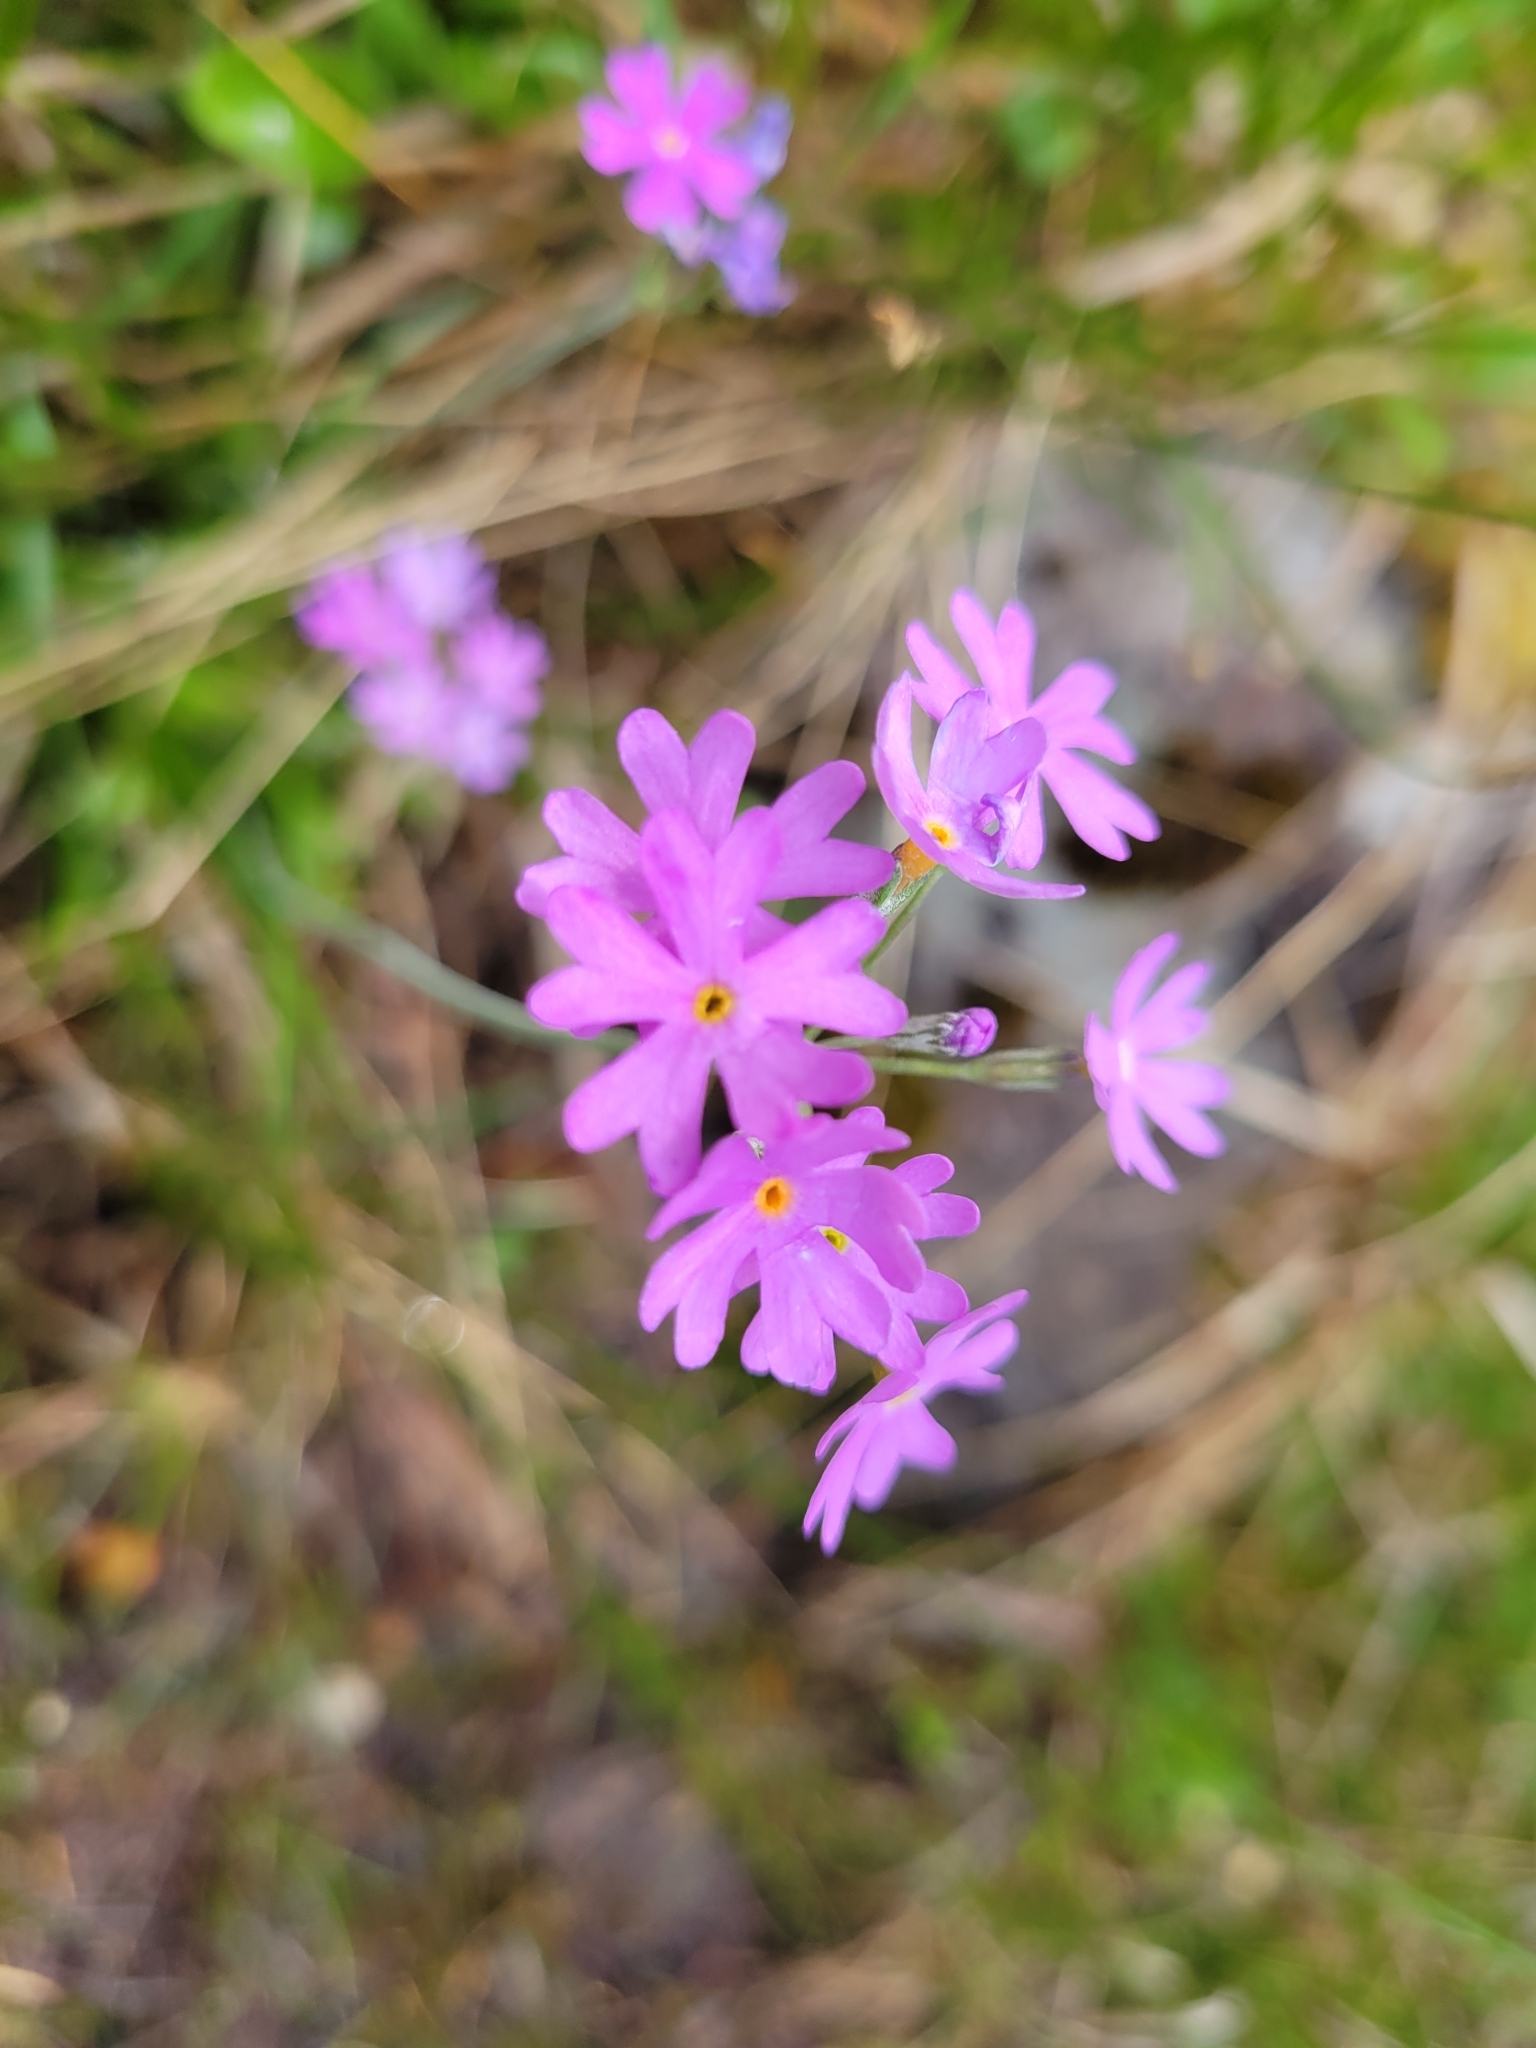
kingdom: Plantae
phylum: Tracheophyta
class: Magnoliopsida
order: Ericales
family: Primulaceae
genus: Primula
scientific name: Primula farinosa
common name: Bird's-eye primrose
